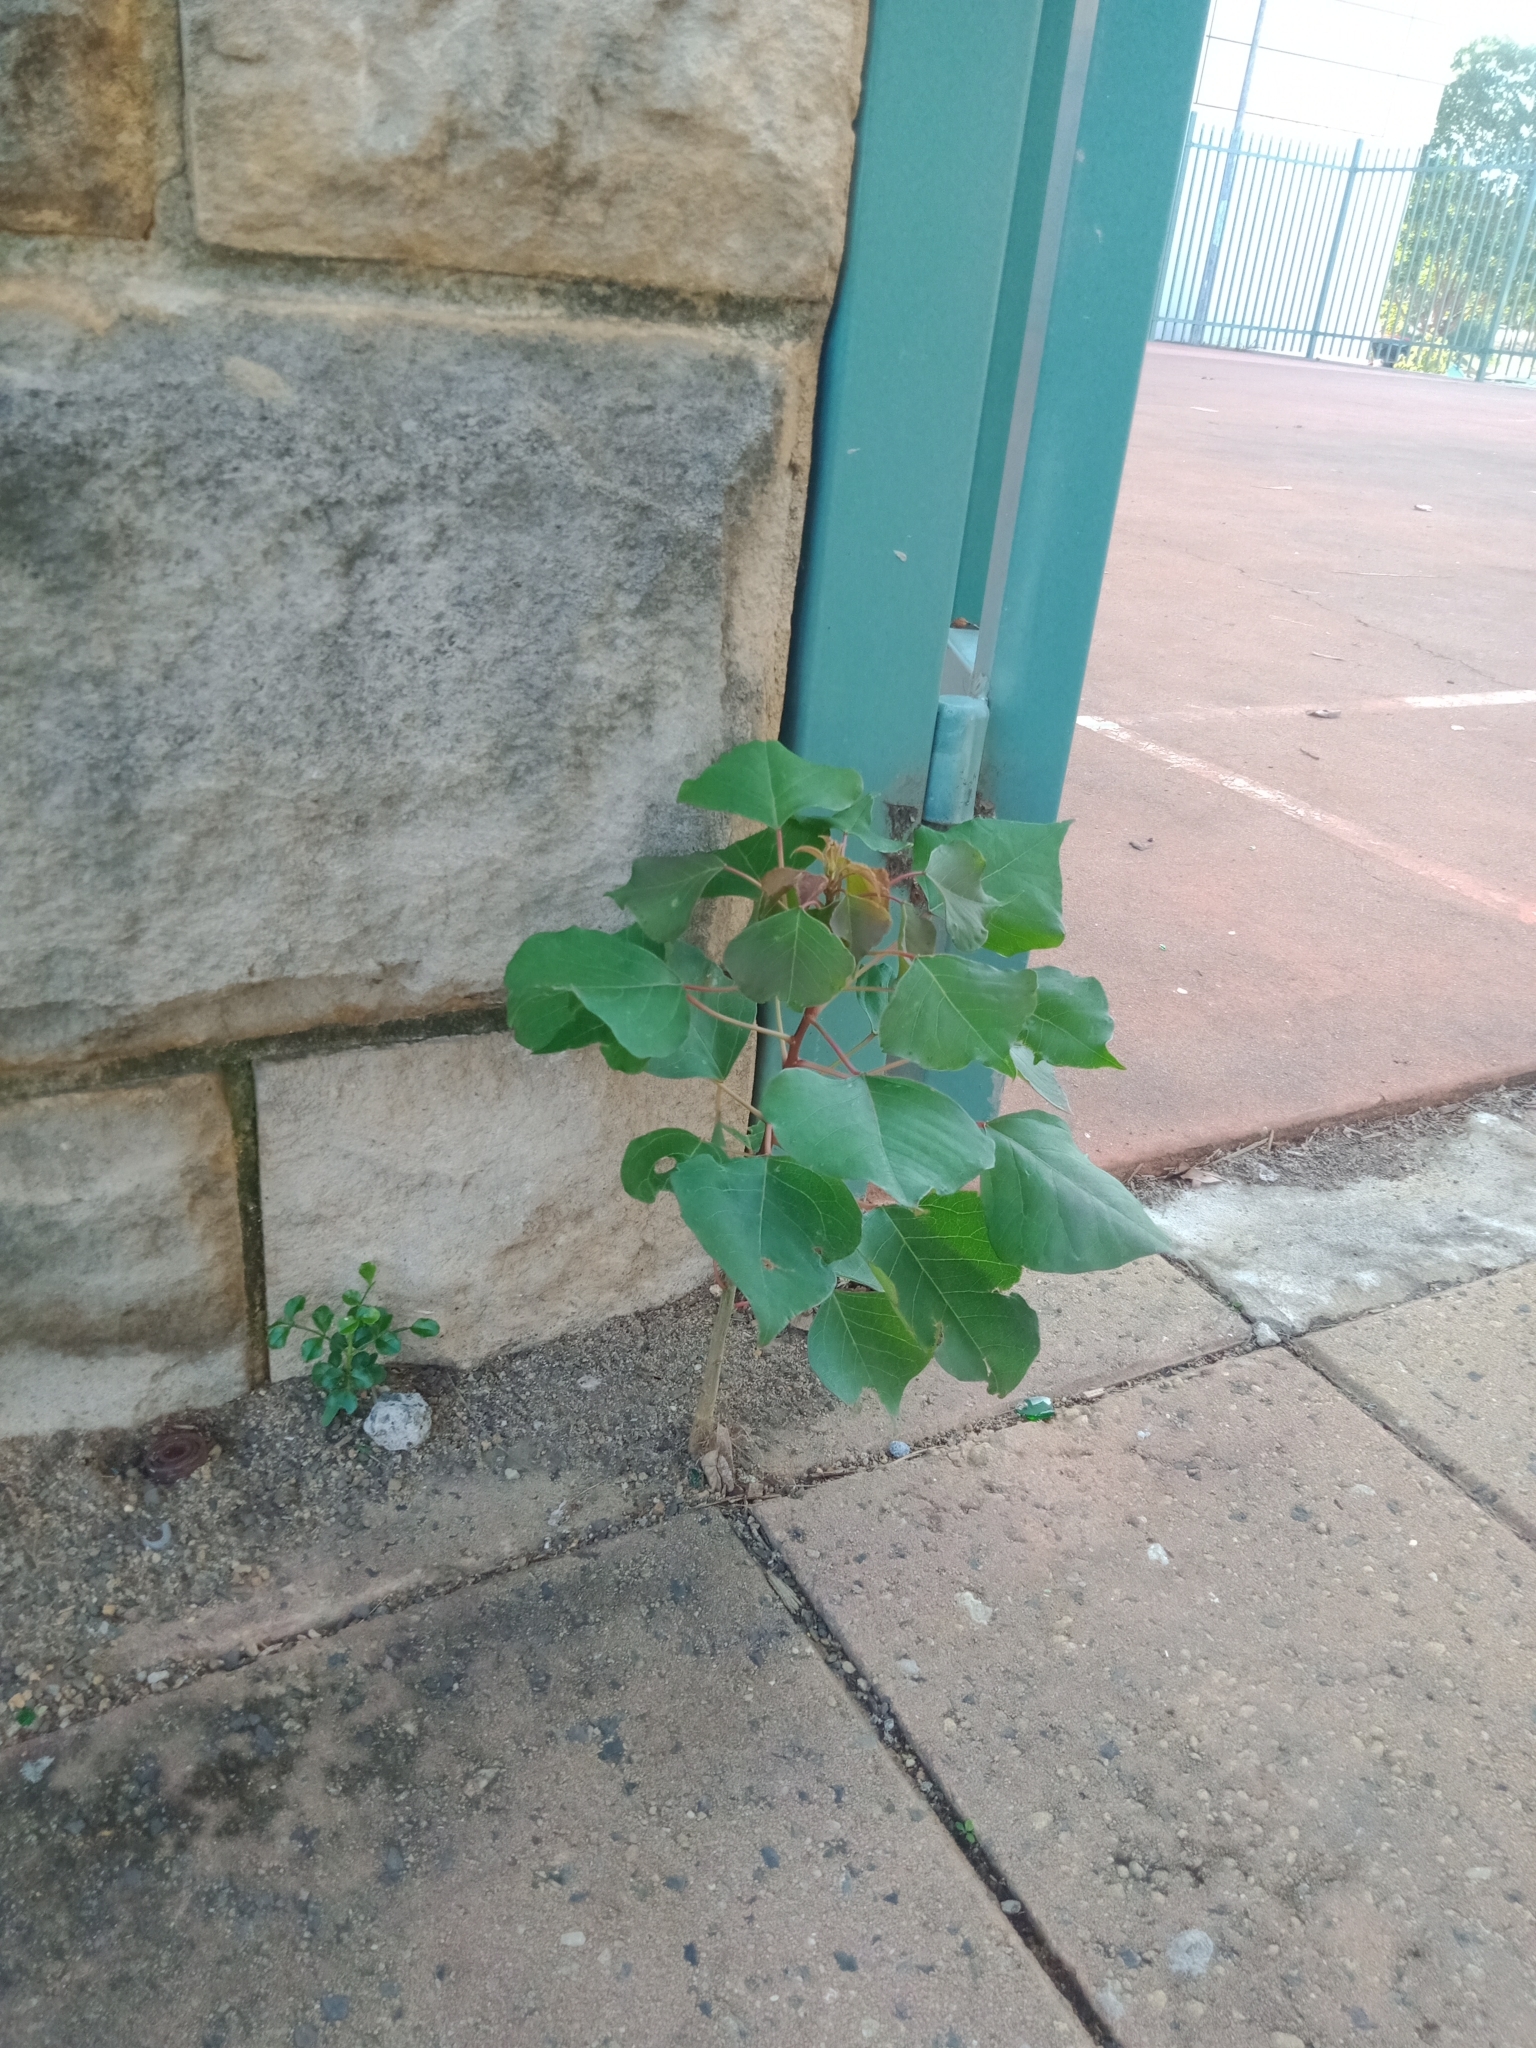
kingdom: Plantae
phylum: Tracheophyta
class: Magnoliopsida
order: Malpighiales
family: Euphorbiaceae
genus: Triadica
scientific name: Triadica sebifera
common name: Chinese tallow
